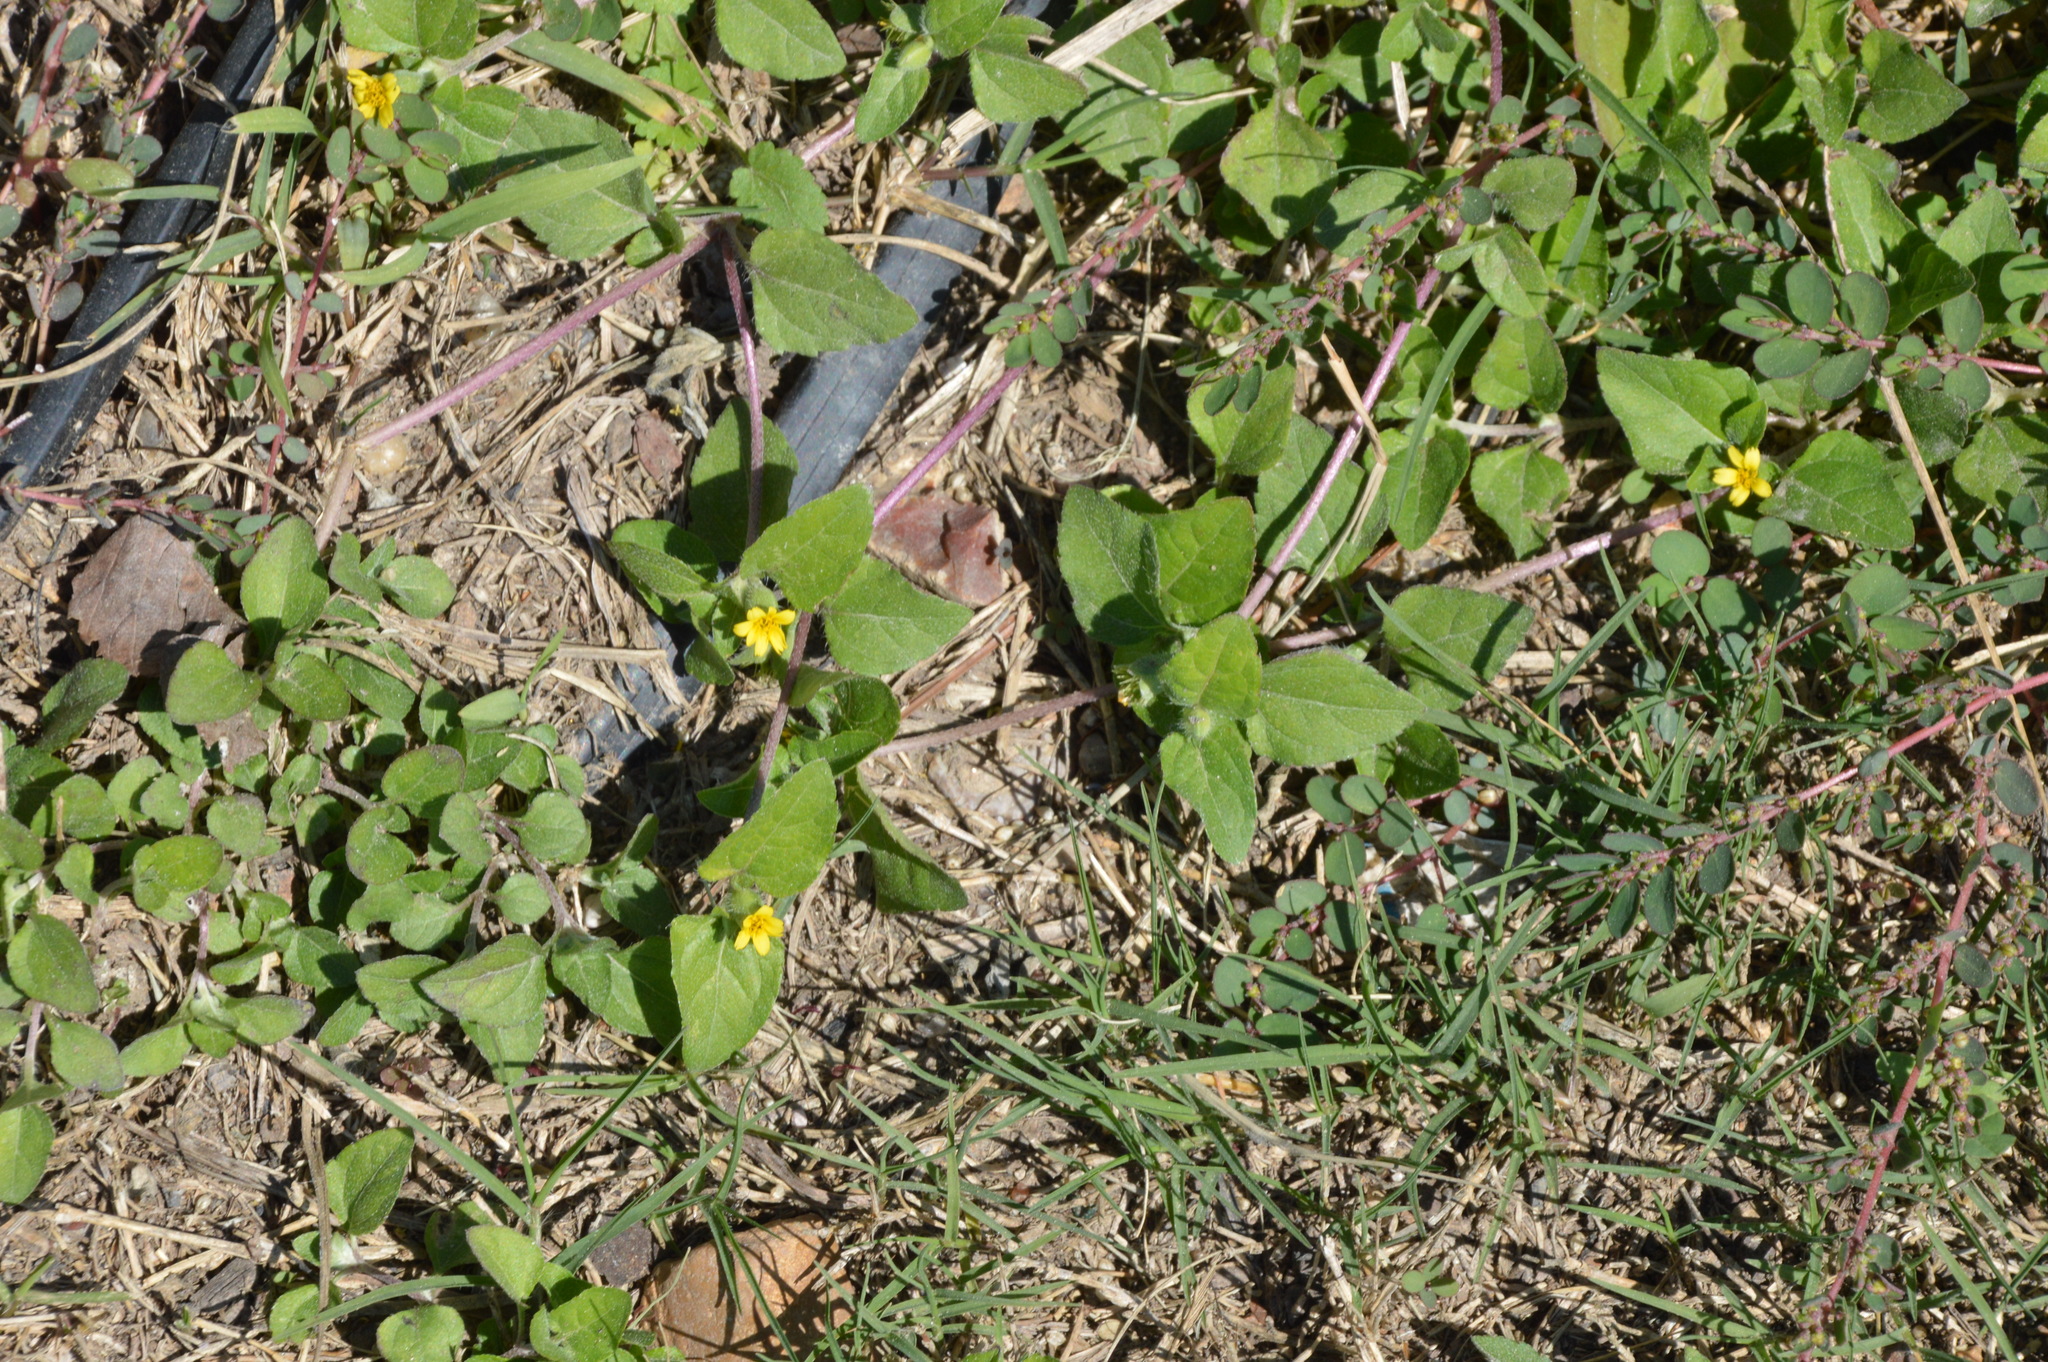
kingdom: Plantae
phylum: Tracheophyta
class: Magnoliopsida
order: Asterales
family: Asteraceae
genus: Calyptocarpus
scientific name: Calyptocarpus vialis
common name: Straggler daisy
